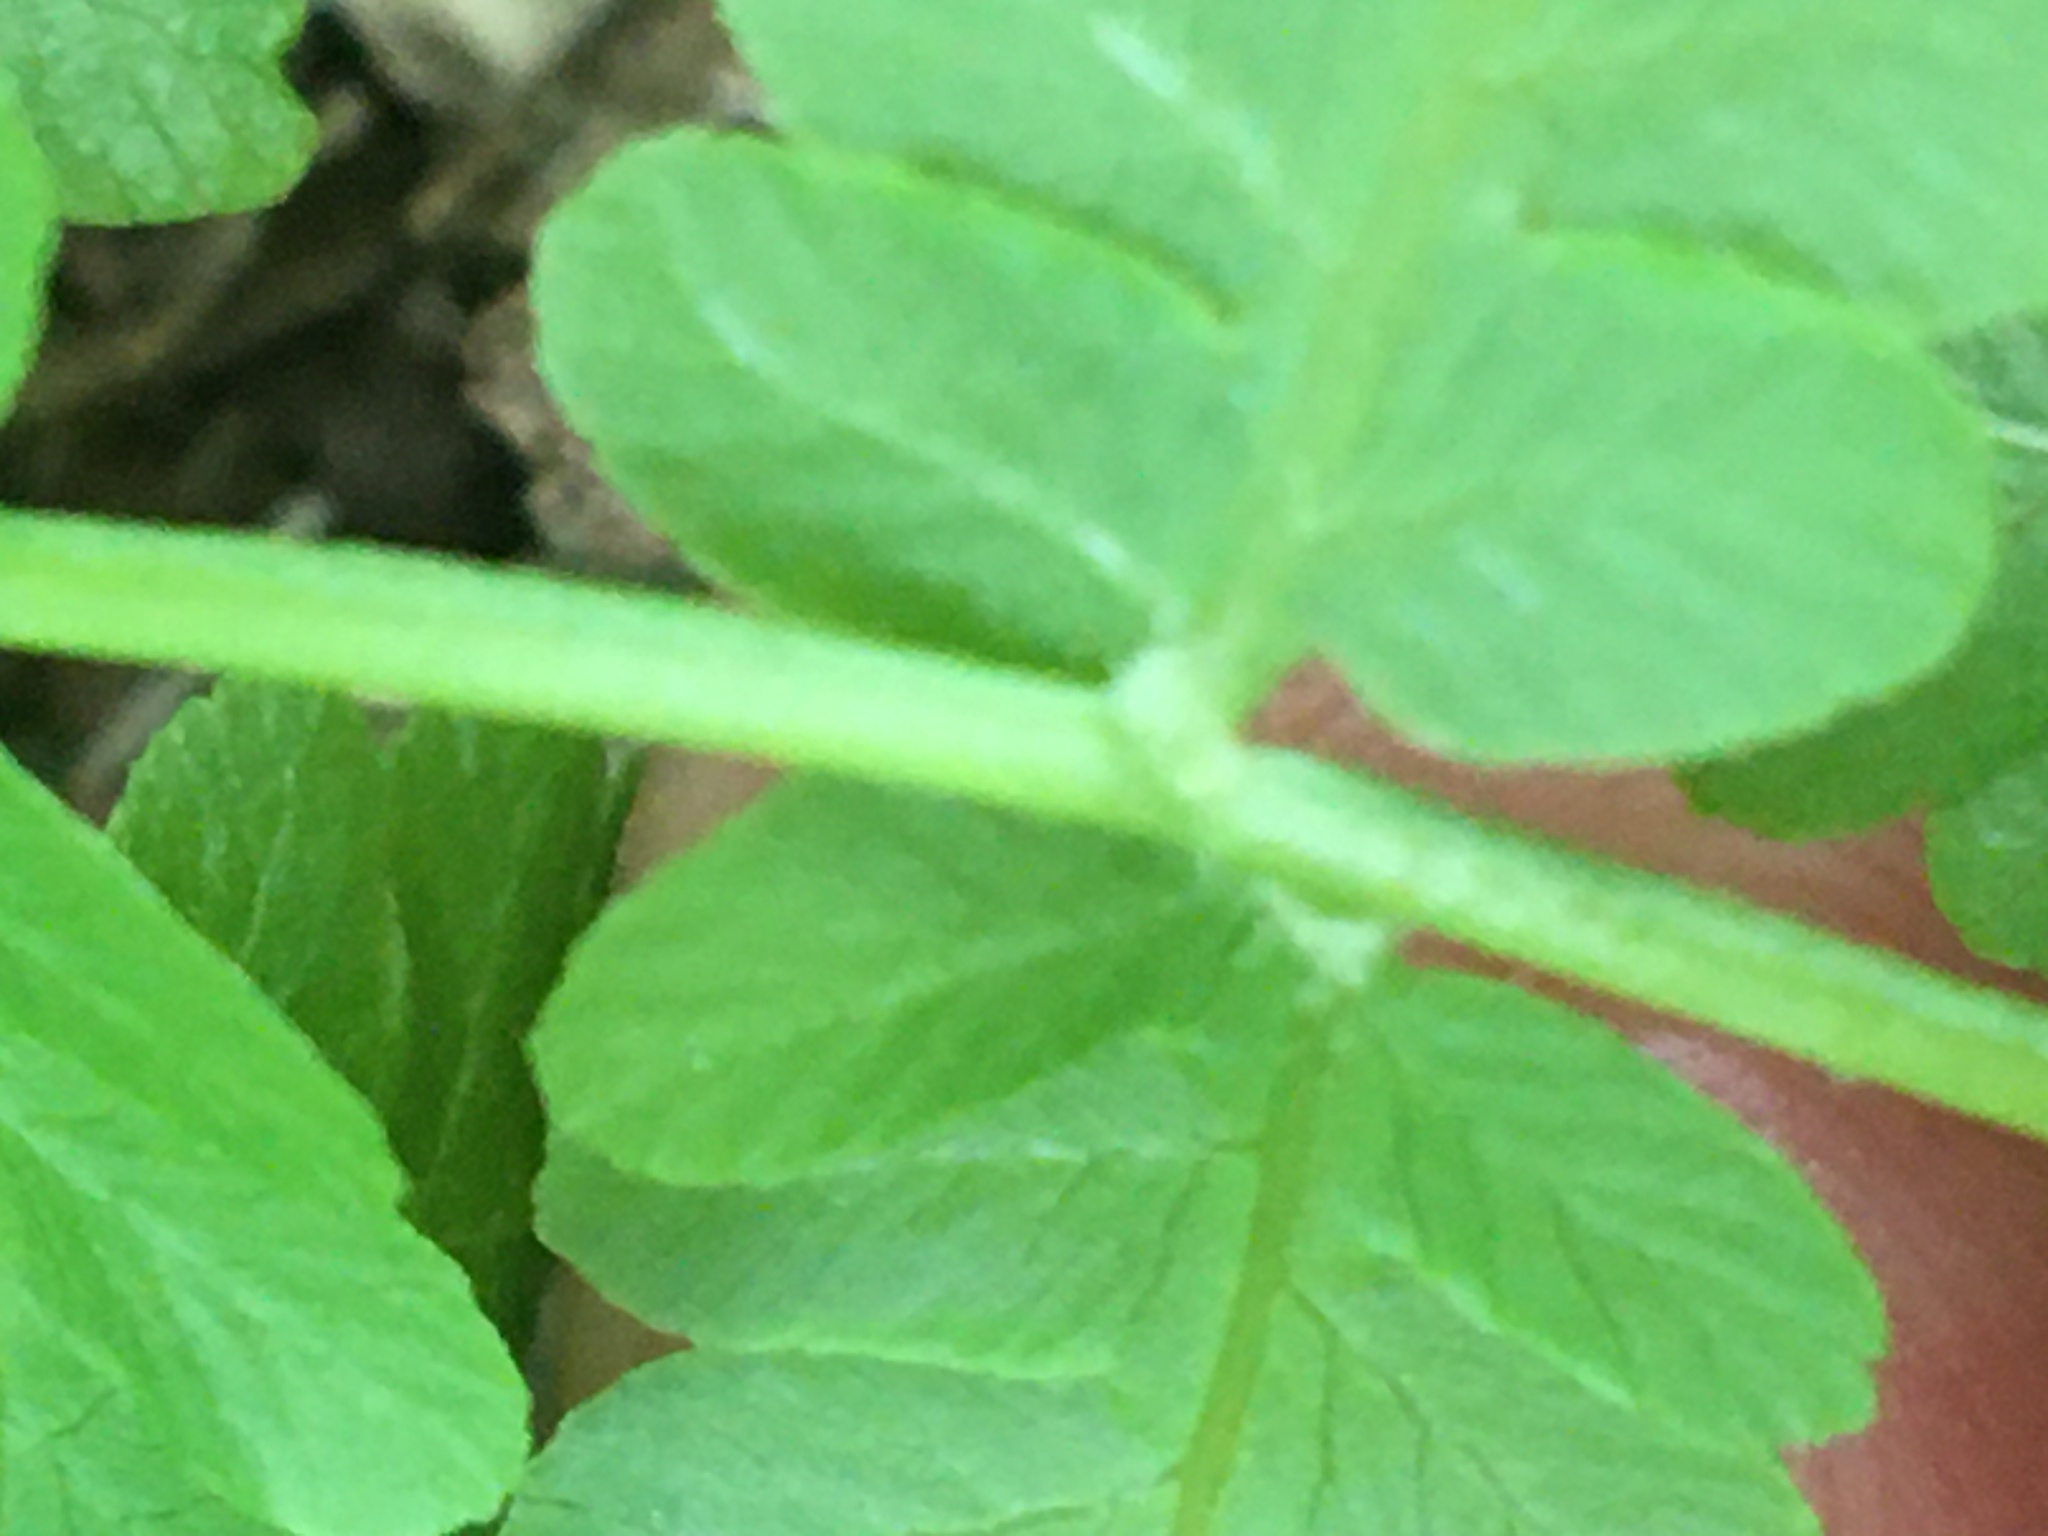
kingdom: Plantae
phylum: Tracheophyta
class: Polypodiopsida
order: Osmundales
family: Osmundaceae
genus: Osmundastrum
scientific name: Osmundastrum cinnamomeum
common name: Cinnamon fern
